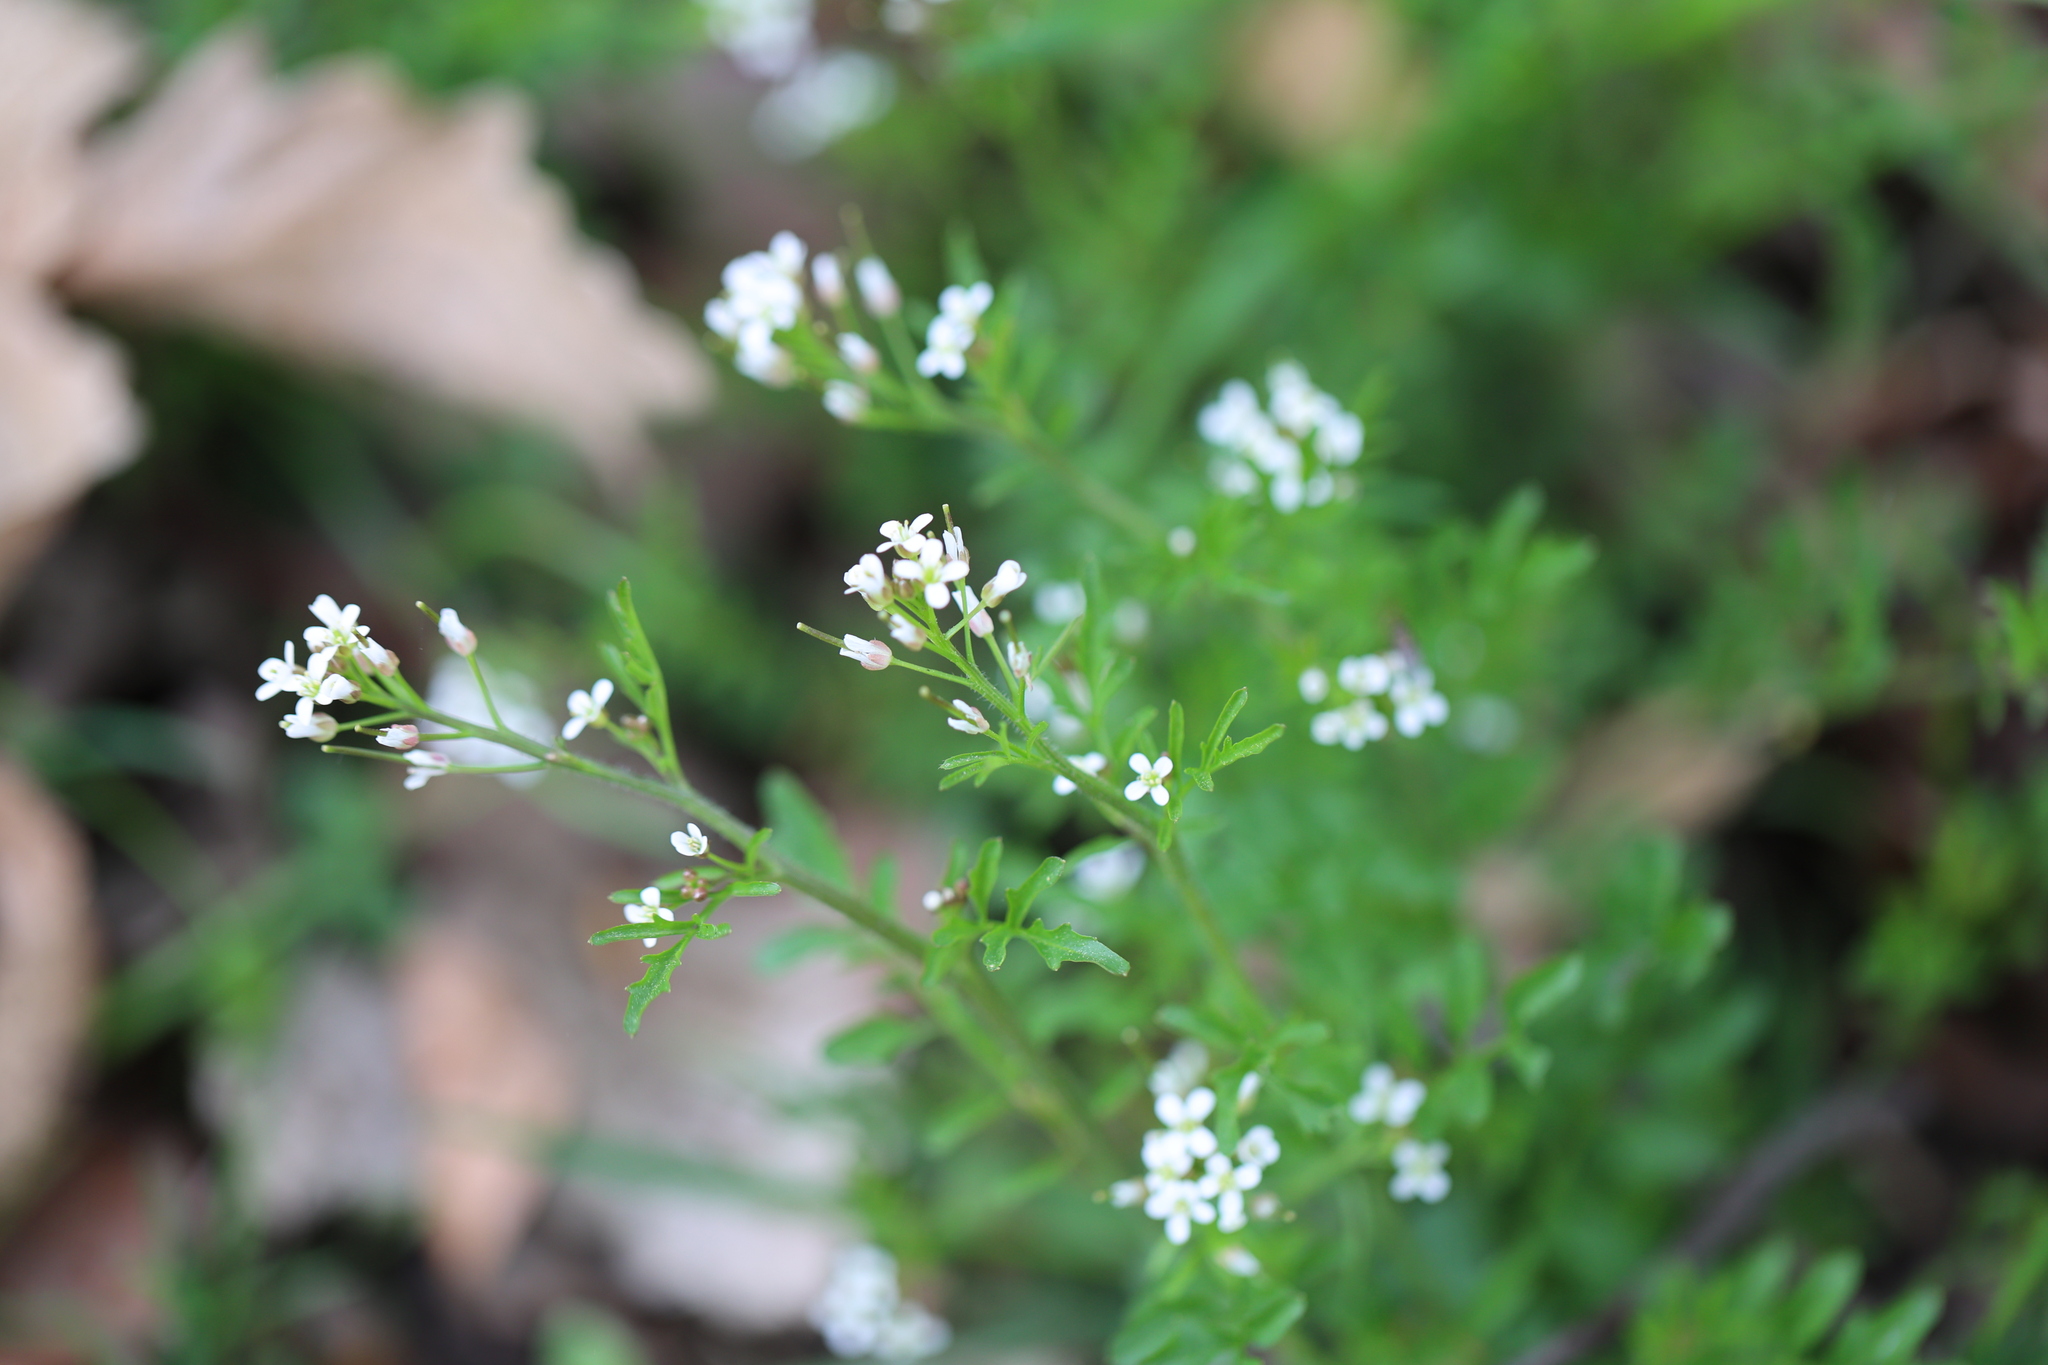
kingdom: Plantae
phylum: Tracheophyta
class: Magnoliopsida
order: Brassicales
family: Brassicaceae
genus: Cardamine
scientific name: Cardamine flexuosa
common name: Woodland bittercress
